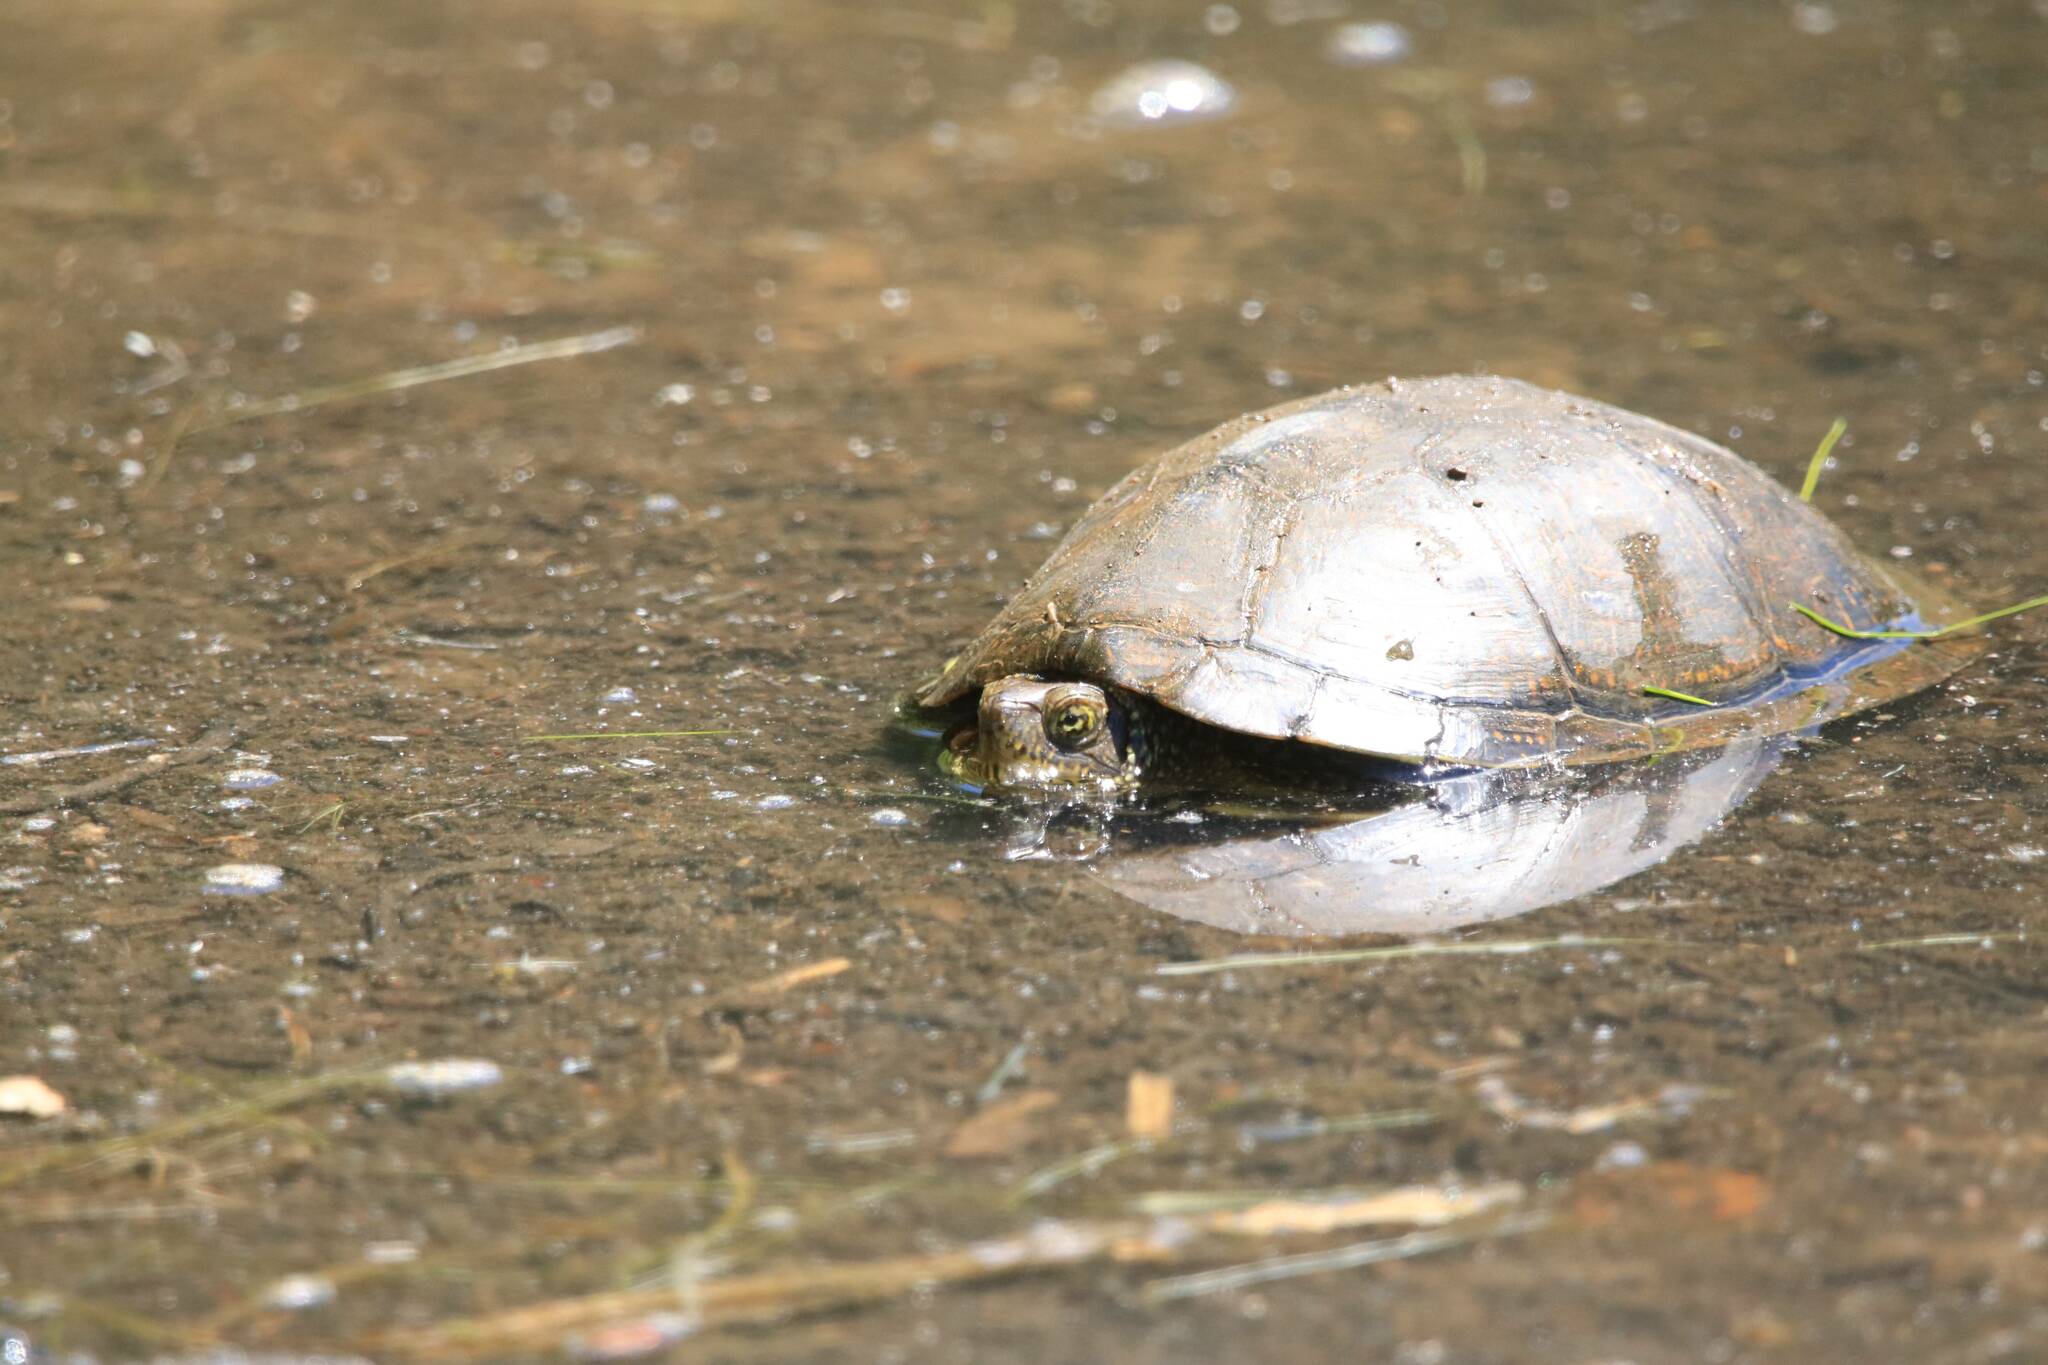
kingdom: Animalia
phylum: Chordata
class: Testudines
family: Emydidae
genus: Emys
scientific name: Emys orbicularis
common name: European pond turtle
